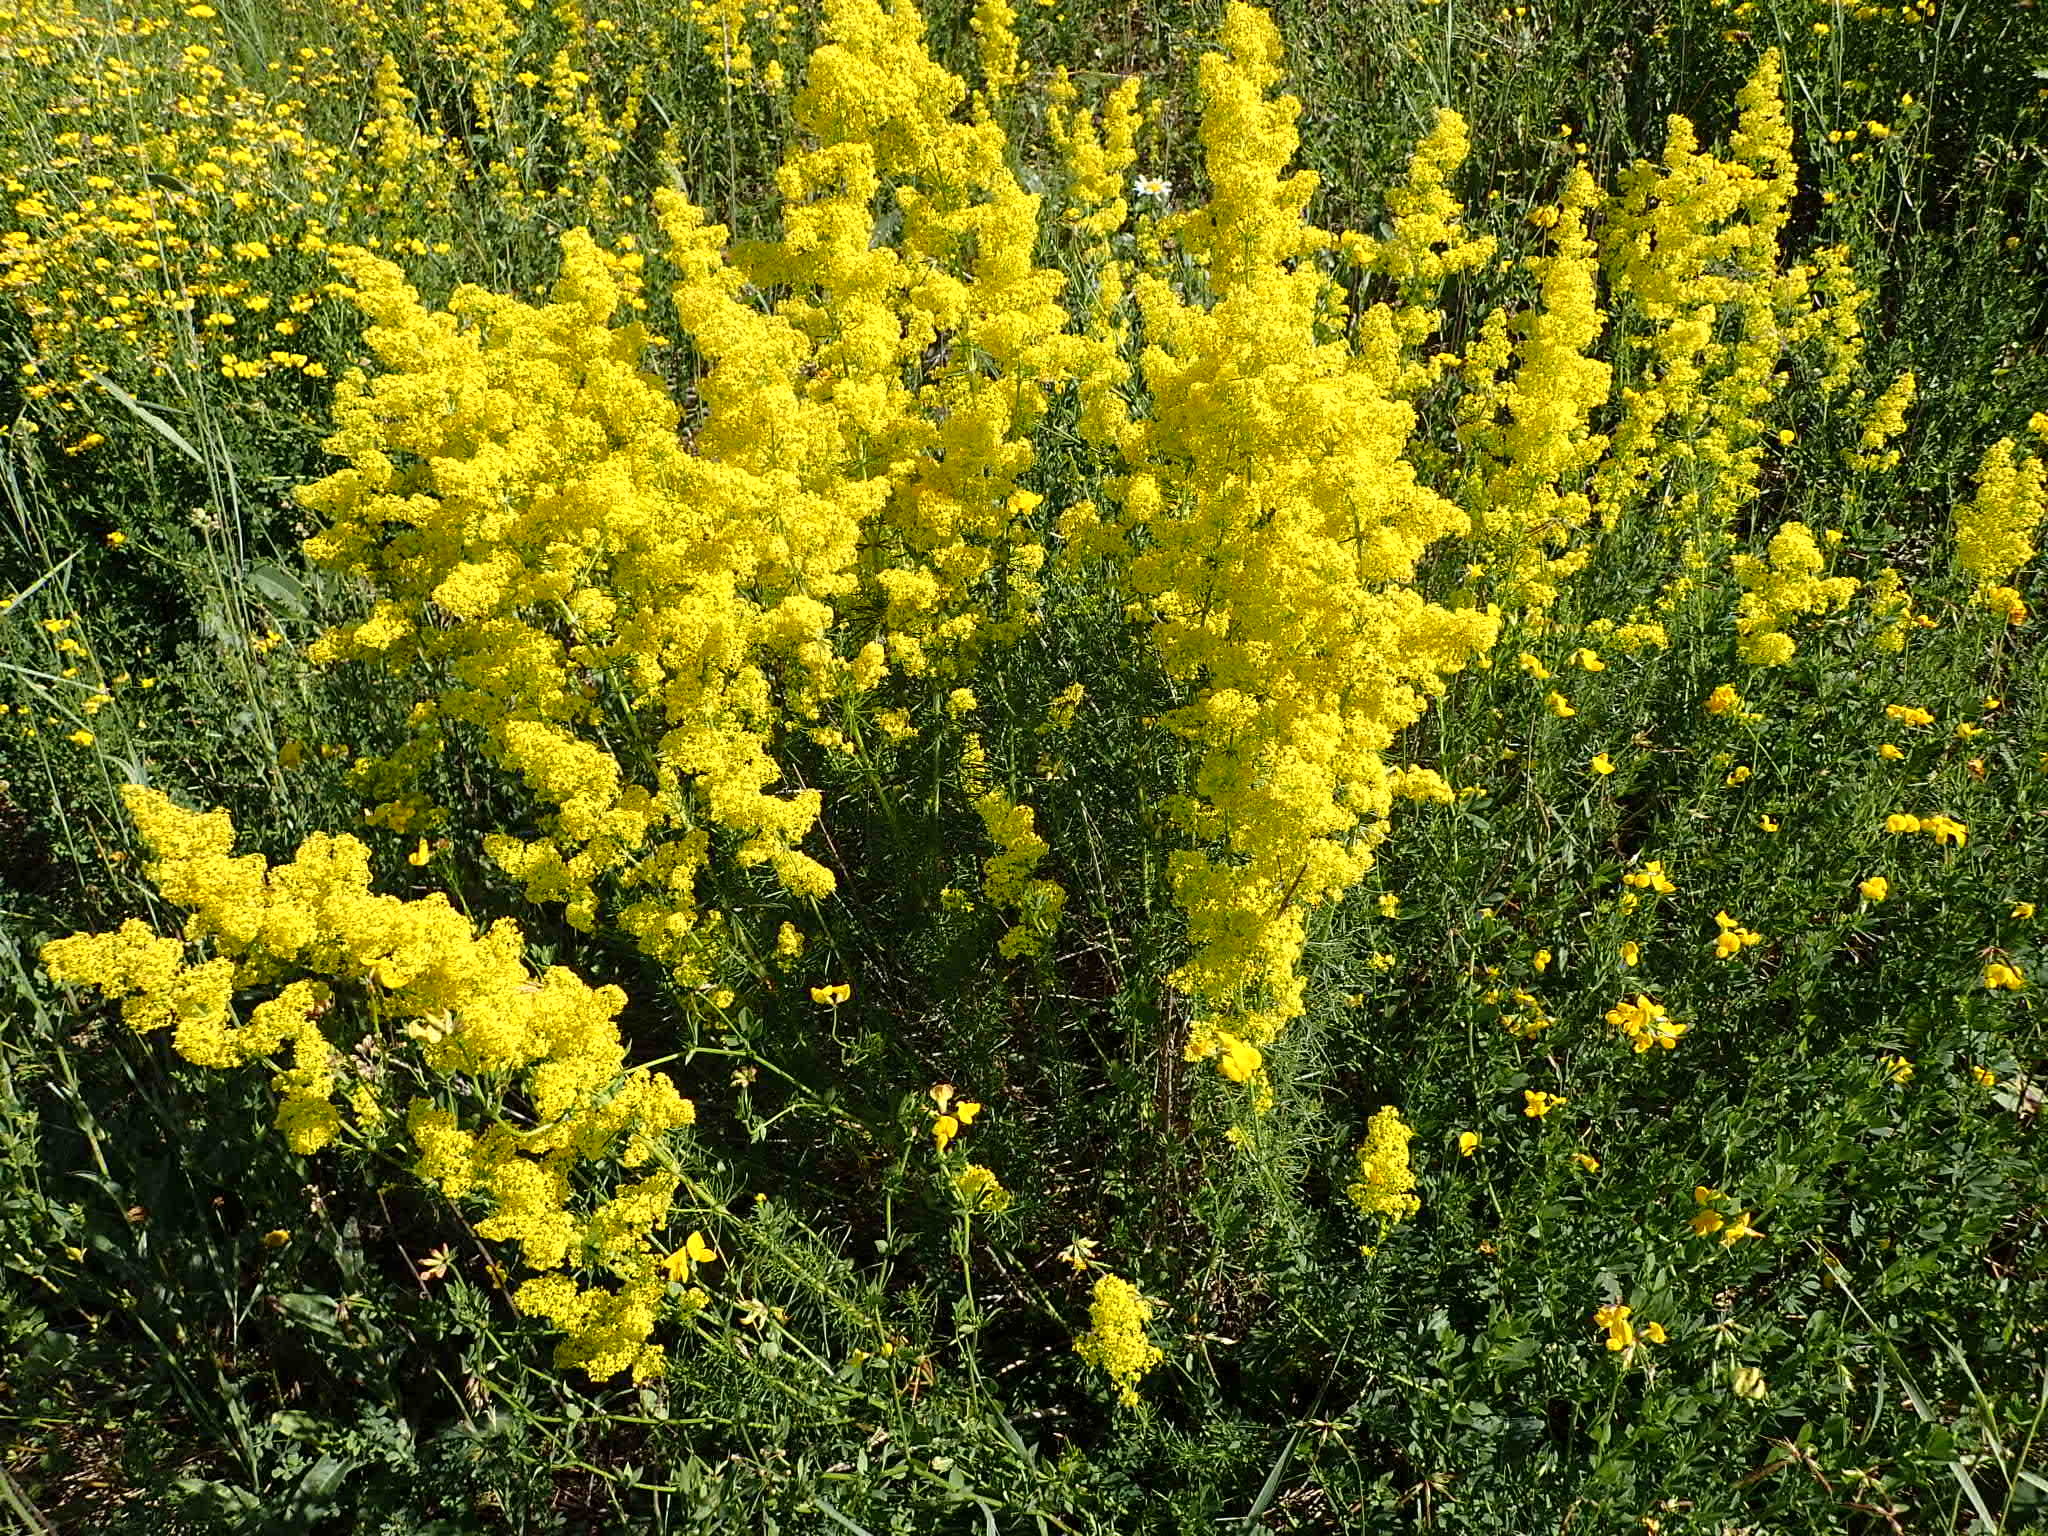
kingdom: Plantae
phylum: Tracheophyta
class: Magnoliopsida
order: Gentianales
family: Rubiaceae
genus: Galium
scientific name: Galium verum
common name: Lady's bedstraw
